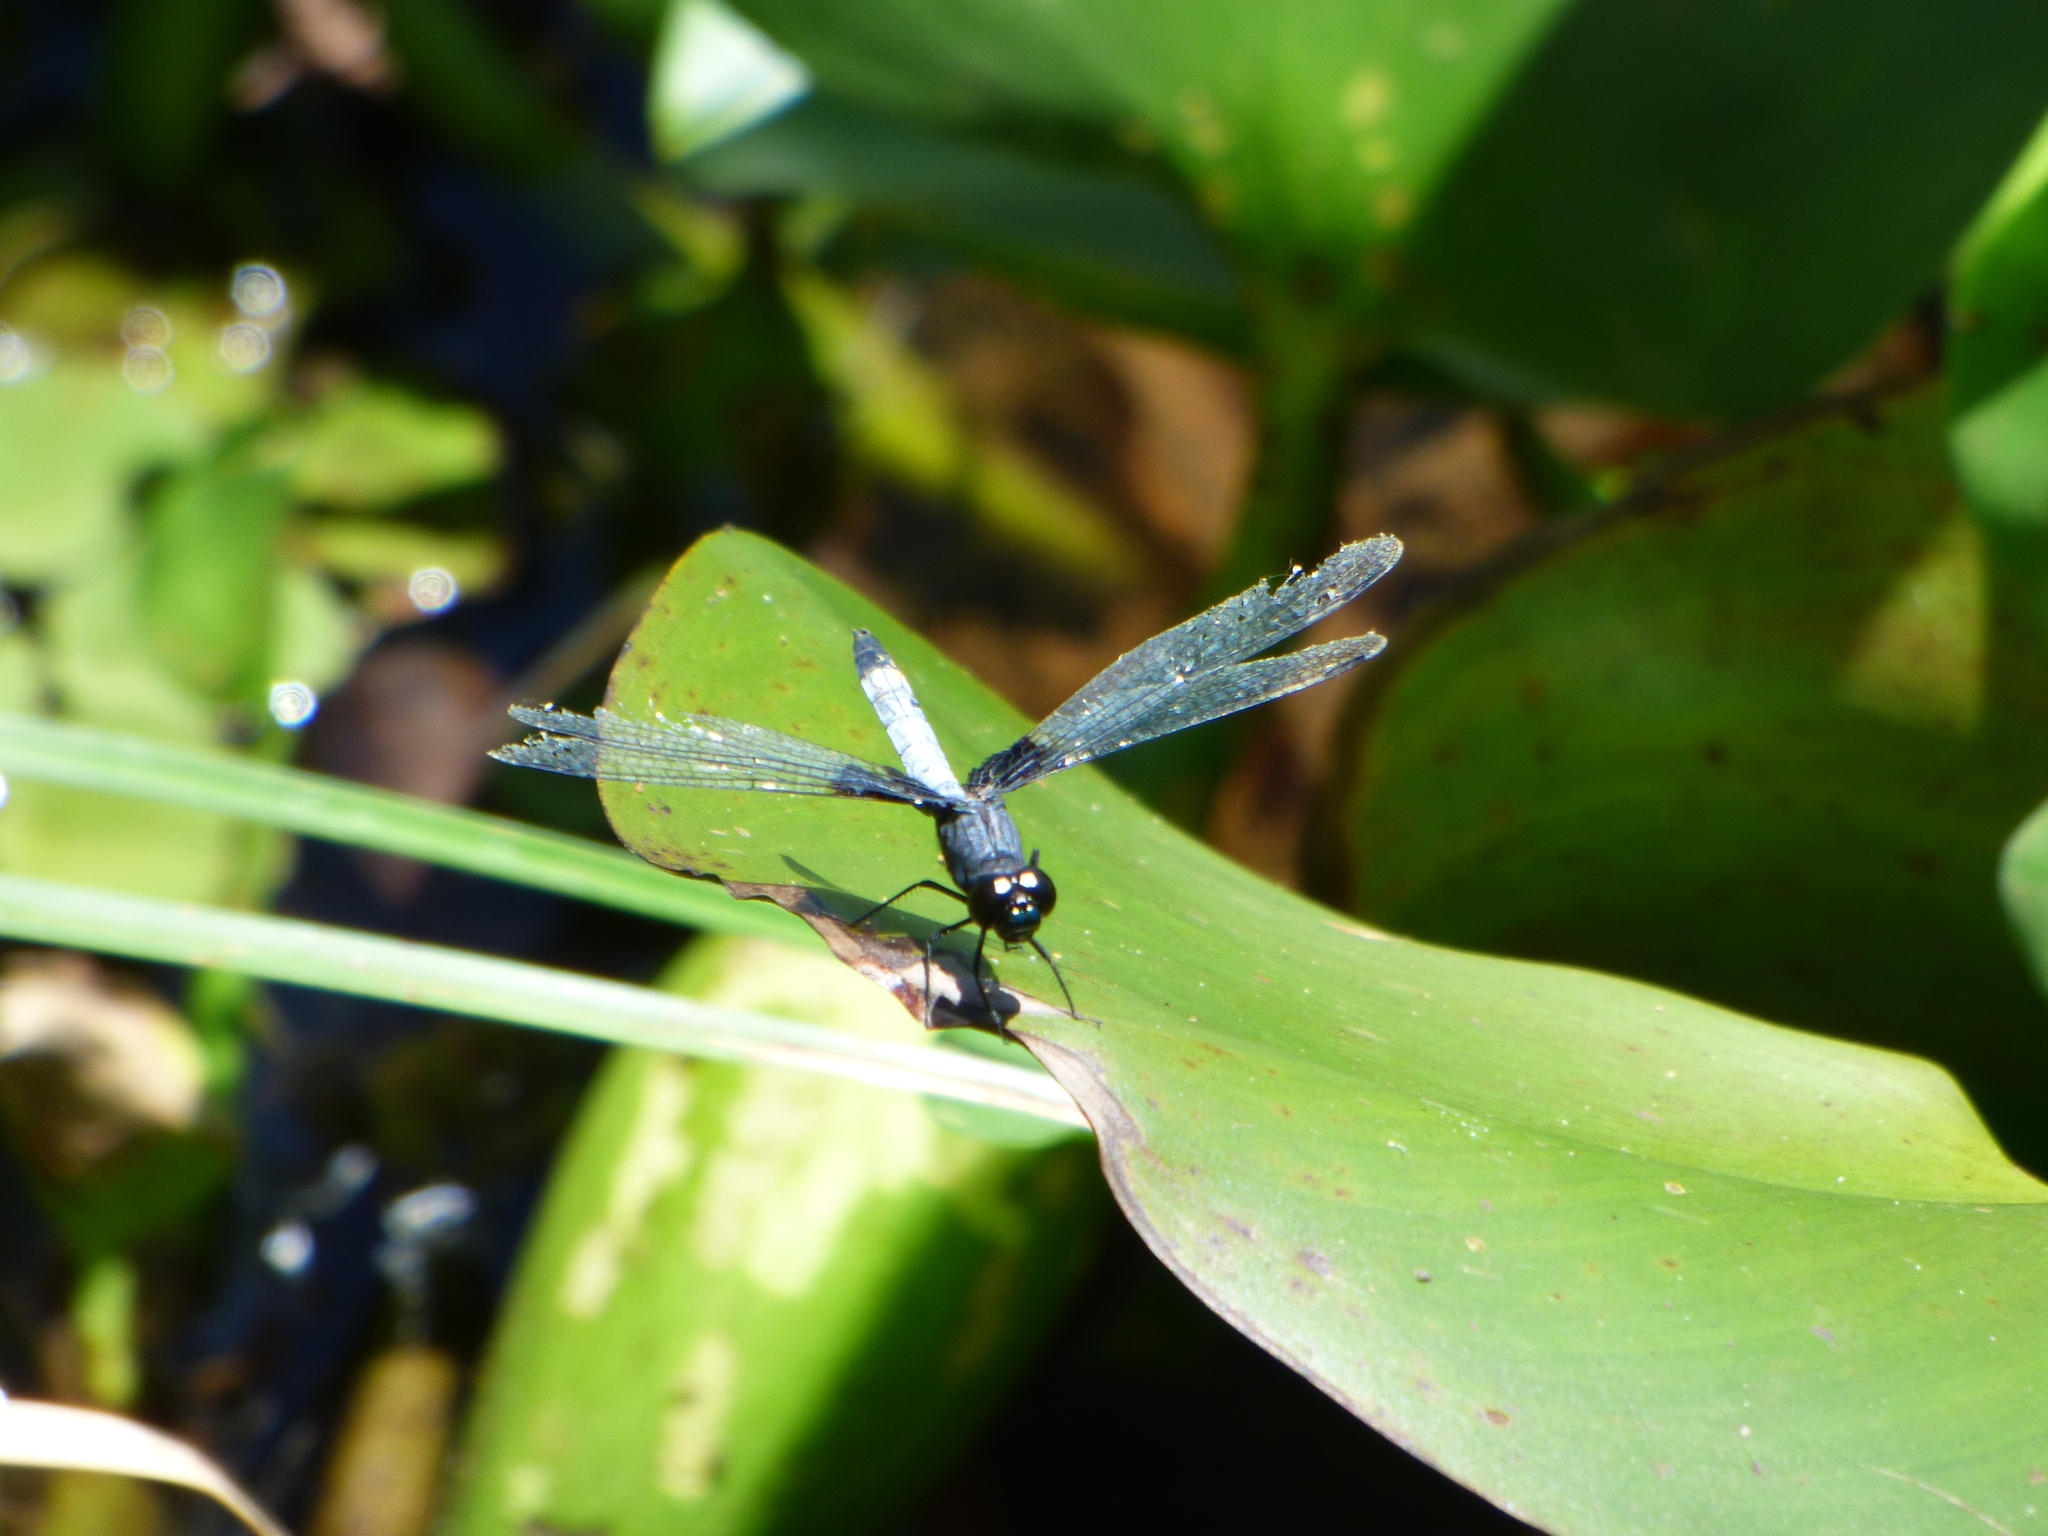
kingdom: Animalia
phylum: Arthropoda
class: Insecta
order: Odonata
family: Libellulidae
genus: Erythrodiplax
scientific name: Erythrodiplax unimaculata
